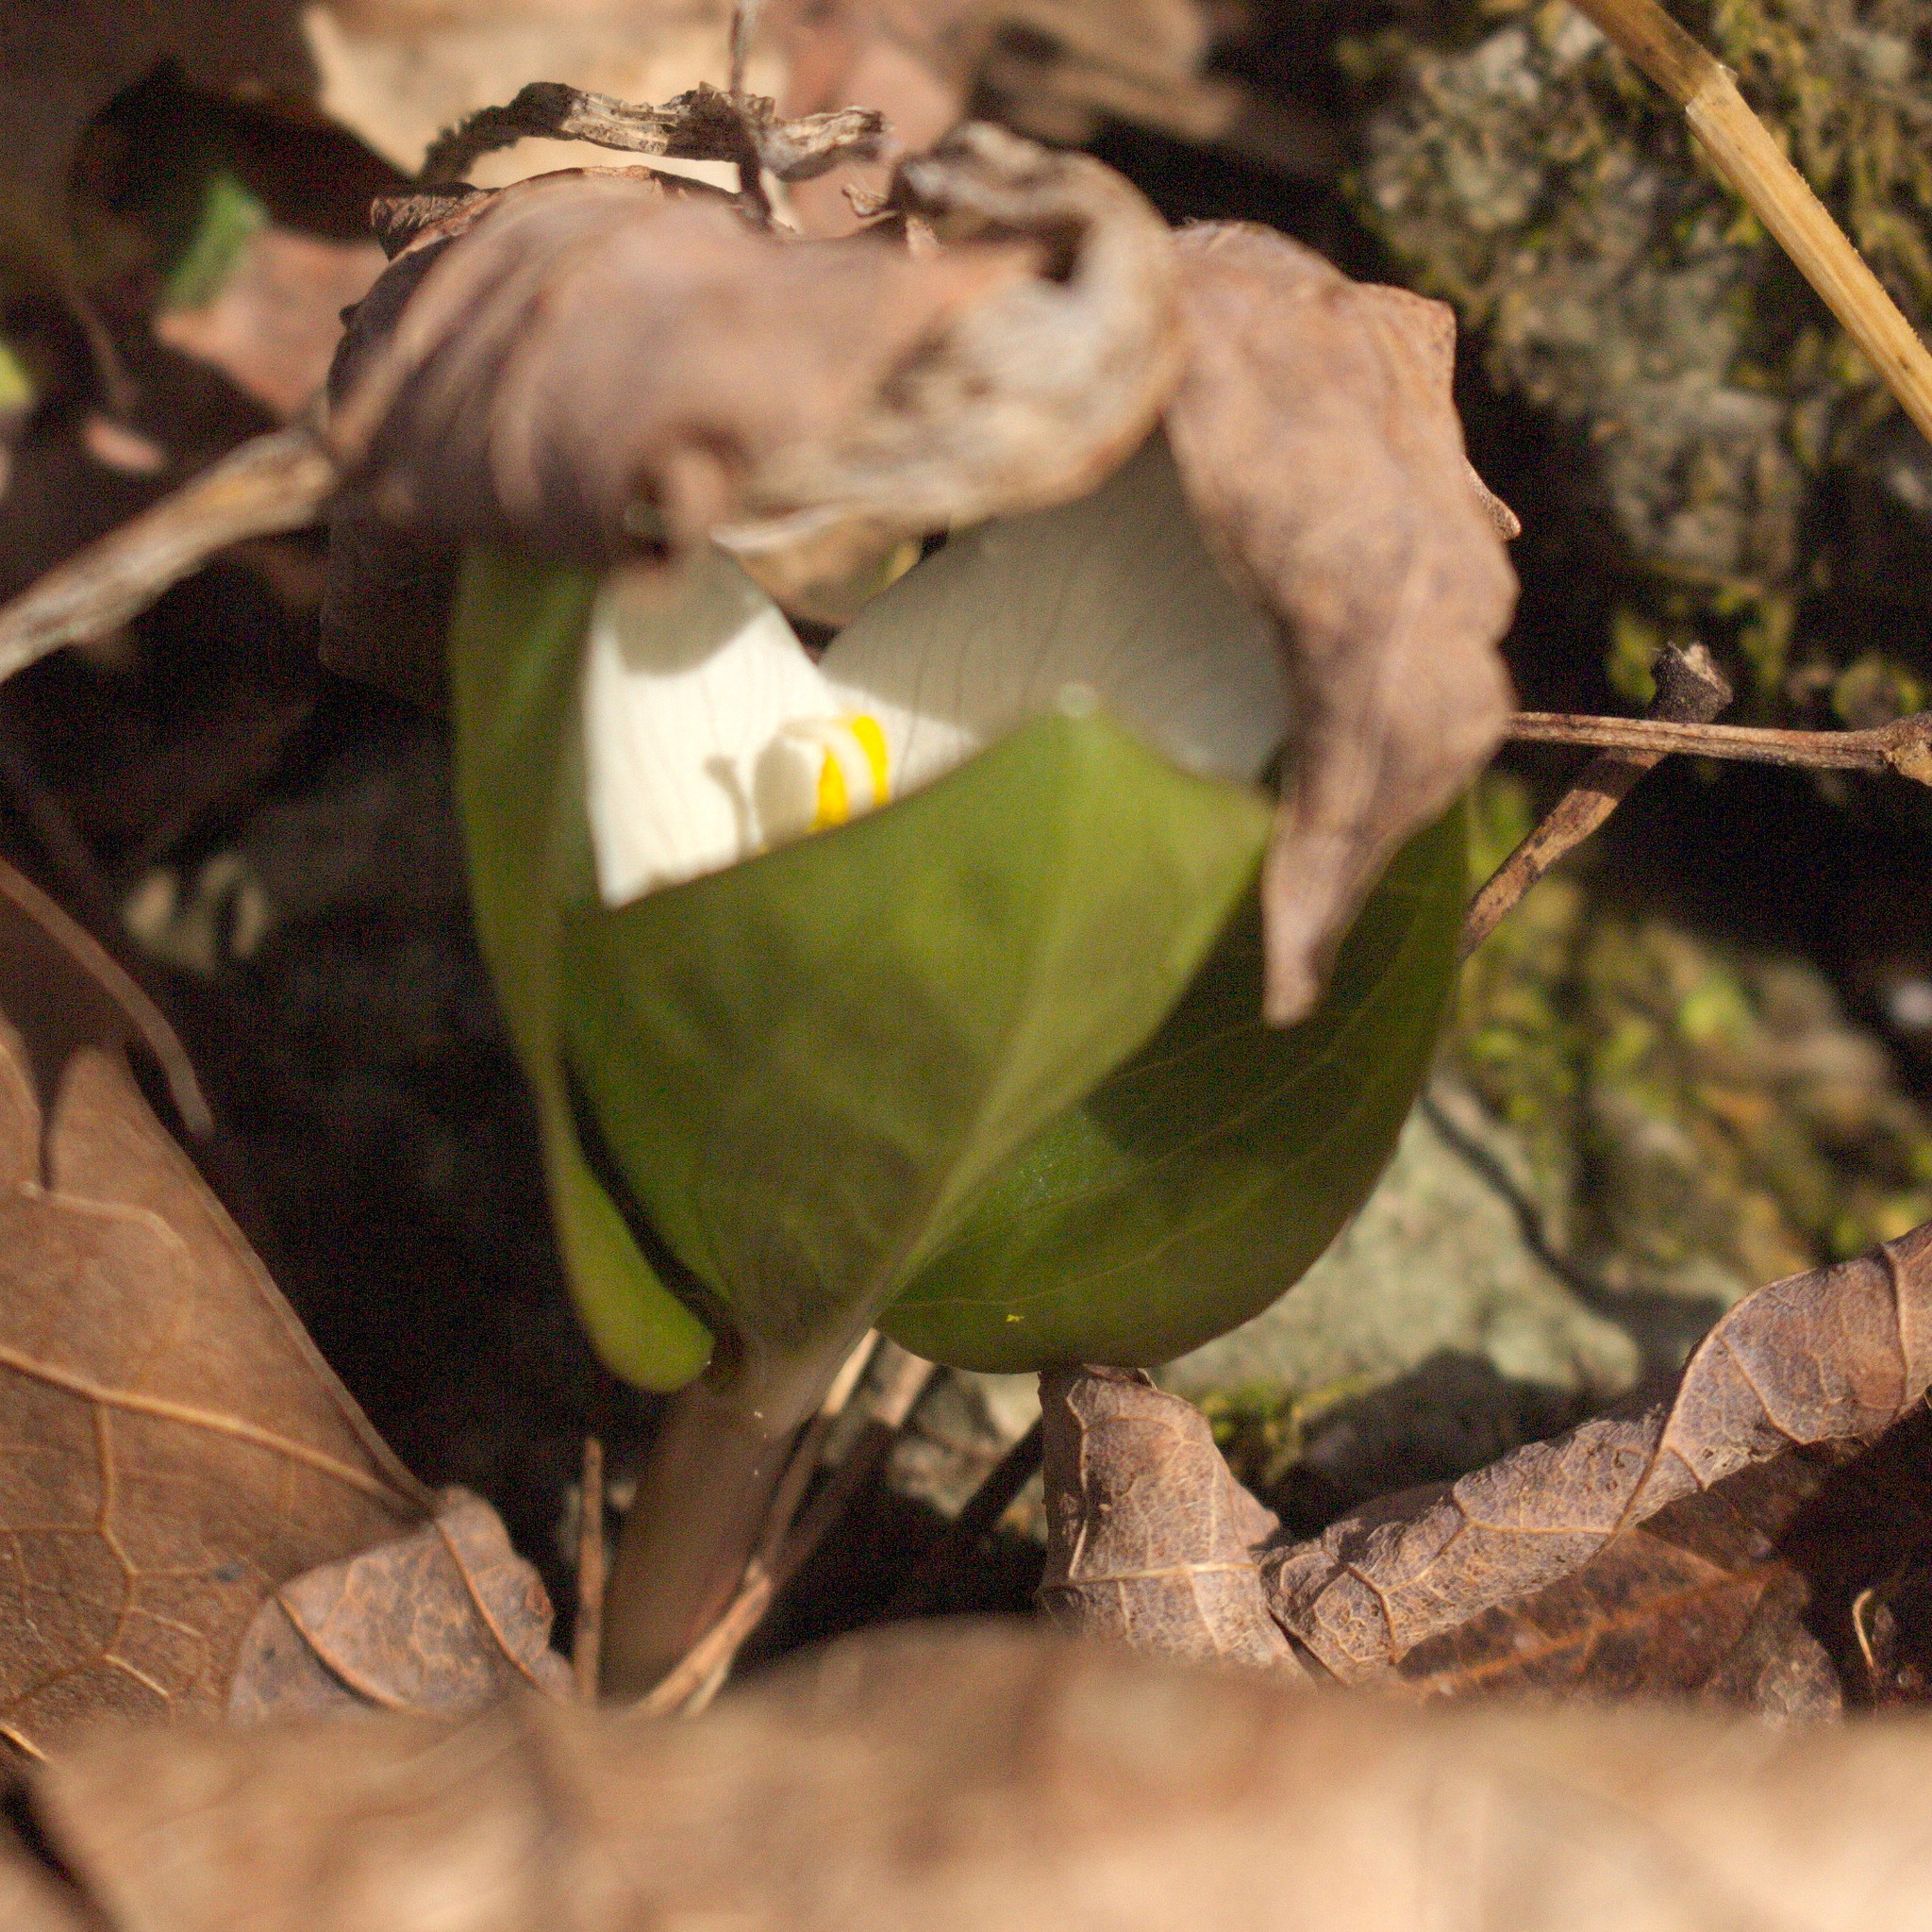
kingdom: Plantae
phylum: Tracheophyta
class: Liliopsida
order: Liliales
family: Melanthiaceae
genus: Trillium
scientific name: Trillium nivale
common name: Dwarf white trillium
